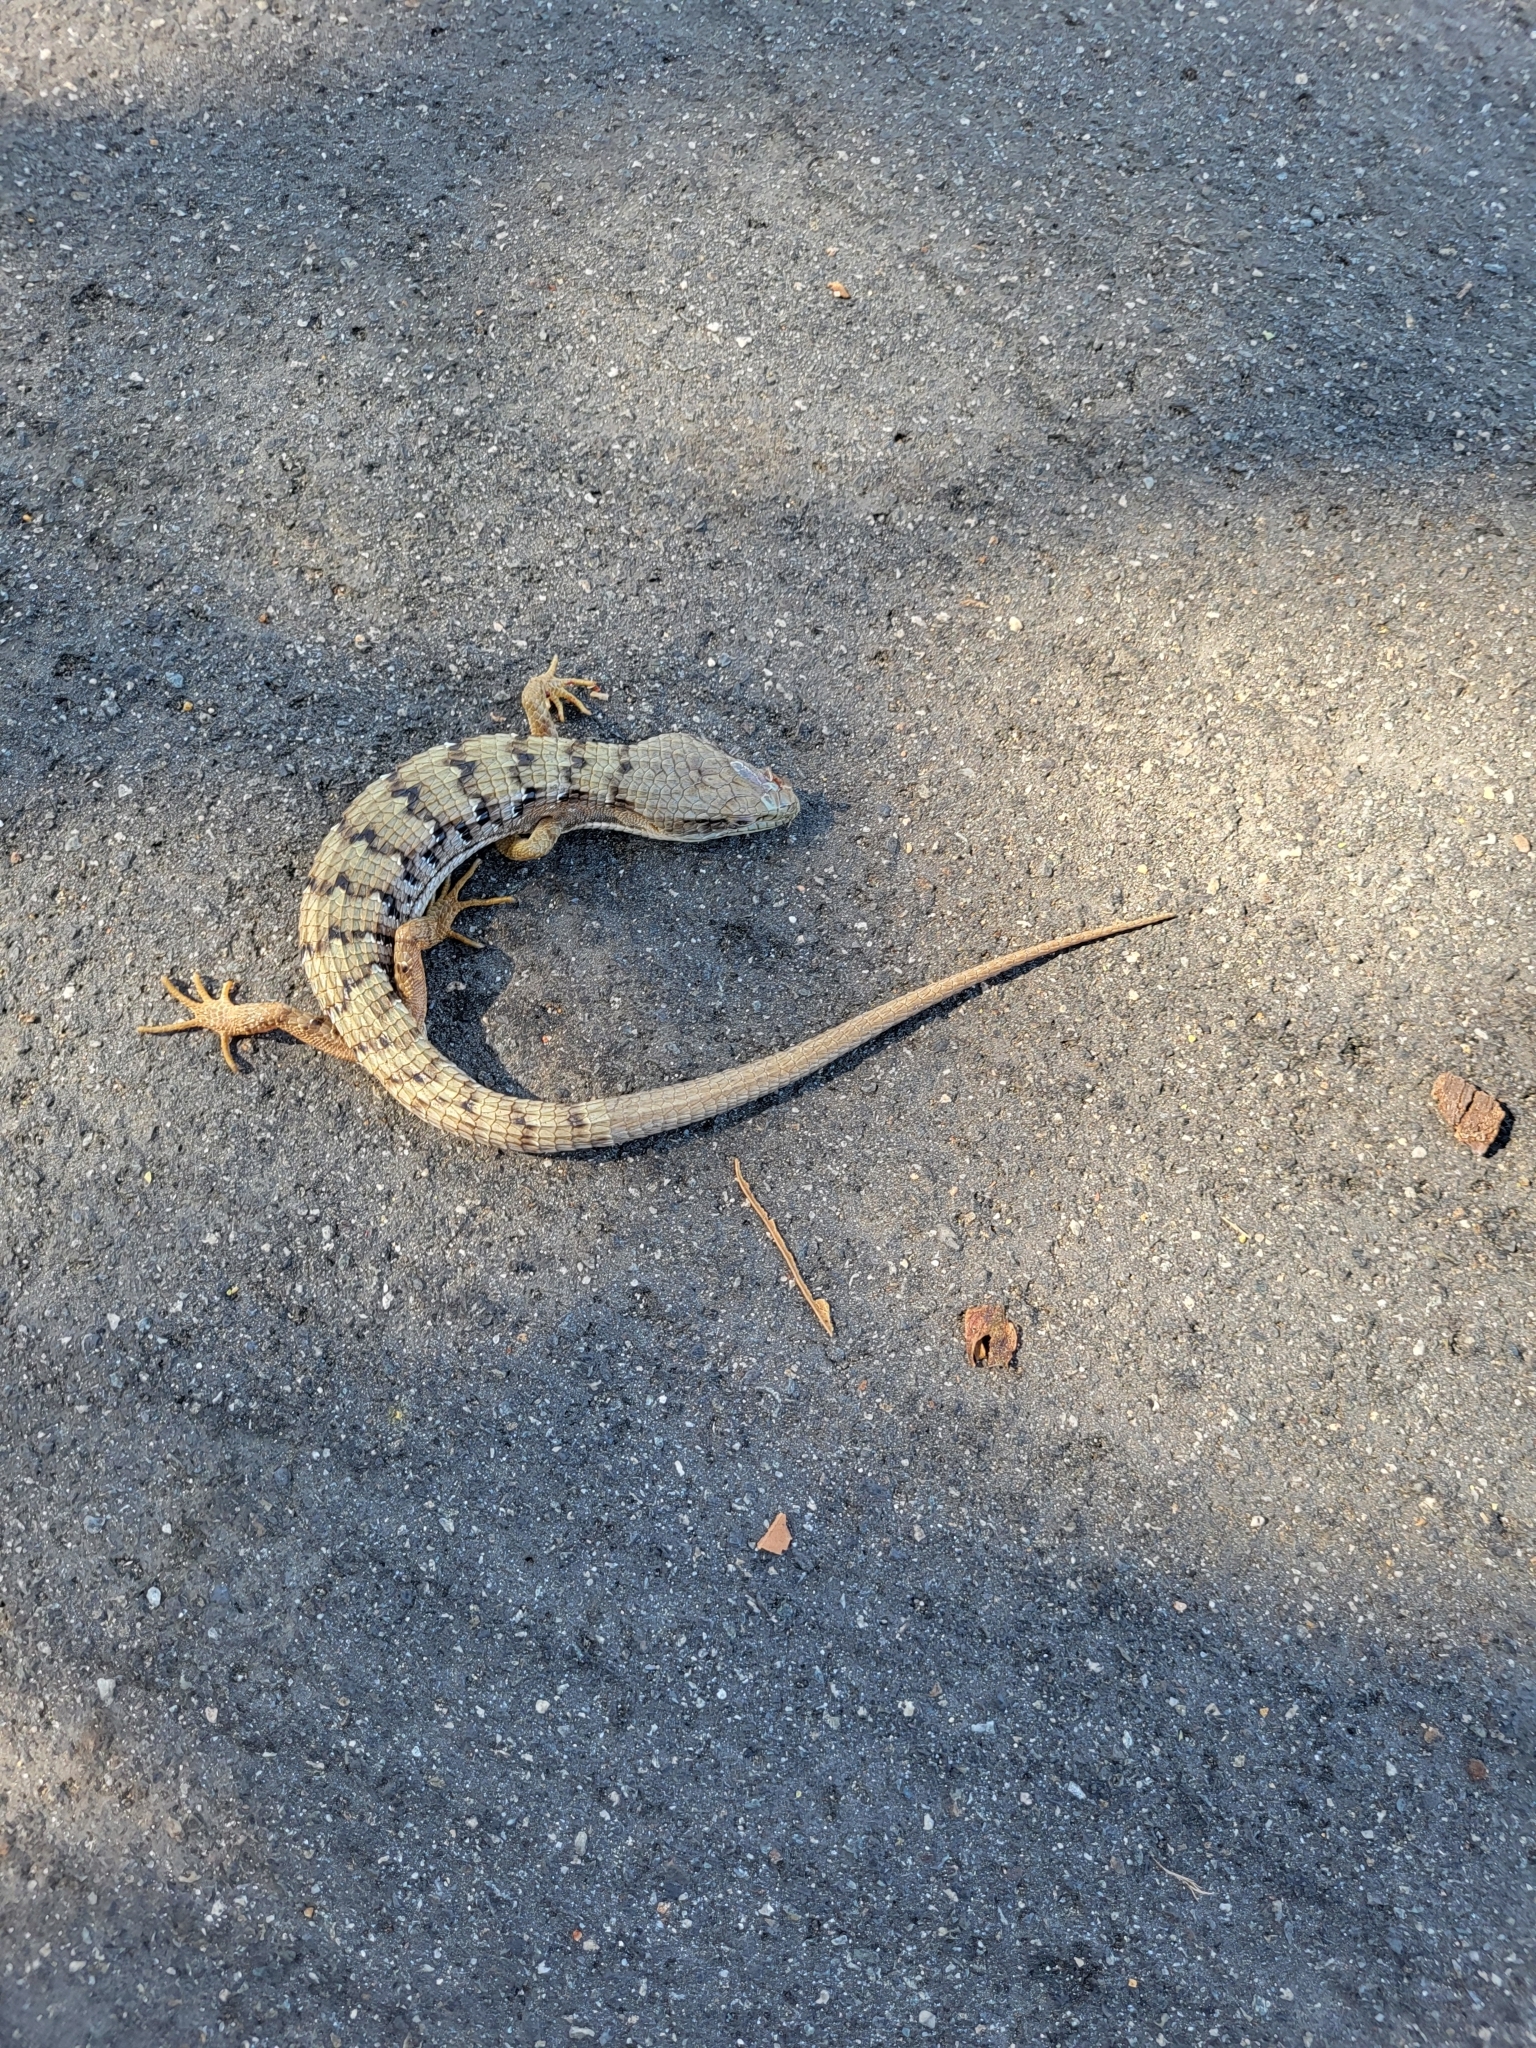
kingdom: Animalia
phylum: Chordata
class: Squamata
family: Anguidae
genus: Elgaria
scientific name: Elgaria multicarinata
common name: Southern alligator lizard
